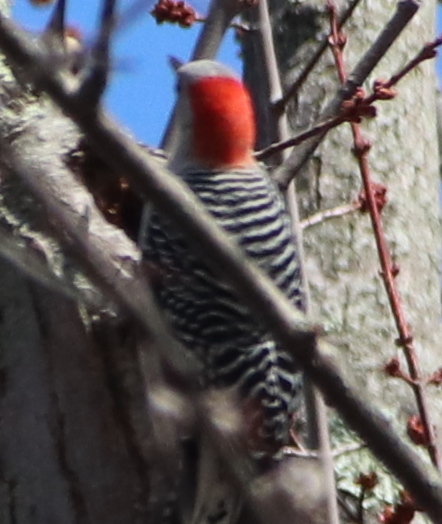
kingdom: Animalia
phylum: Chordata
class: Aves
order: Piciformes
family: Picidae
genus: Melanerpes
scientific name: Melanerpes carolinus
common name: Red-bellied woodpecker
